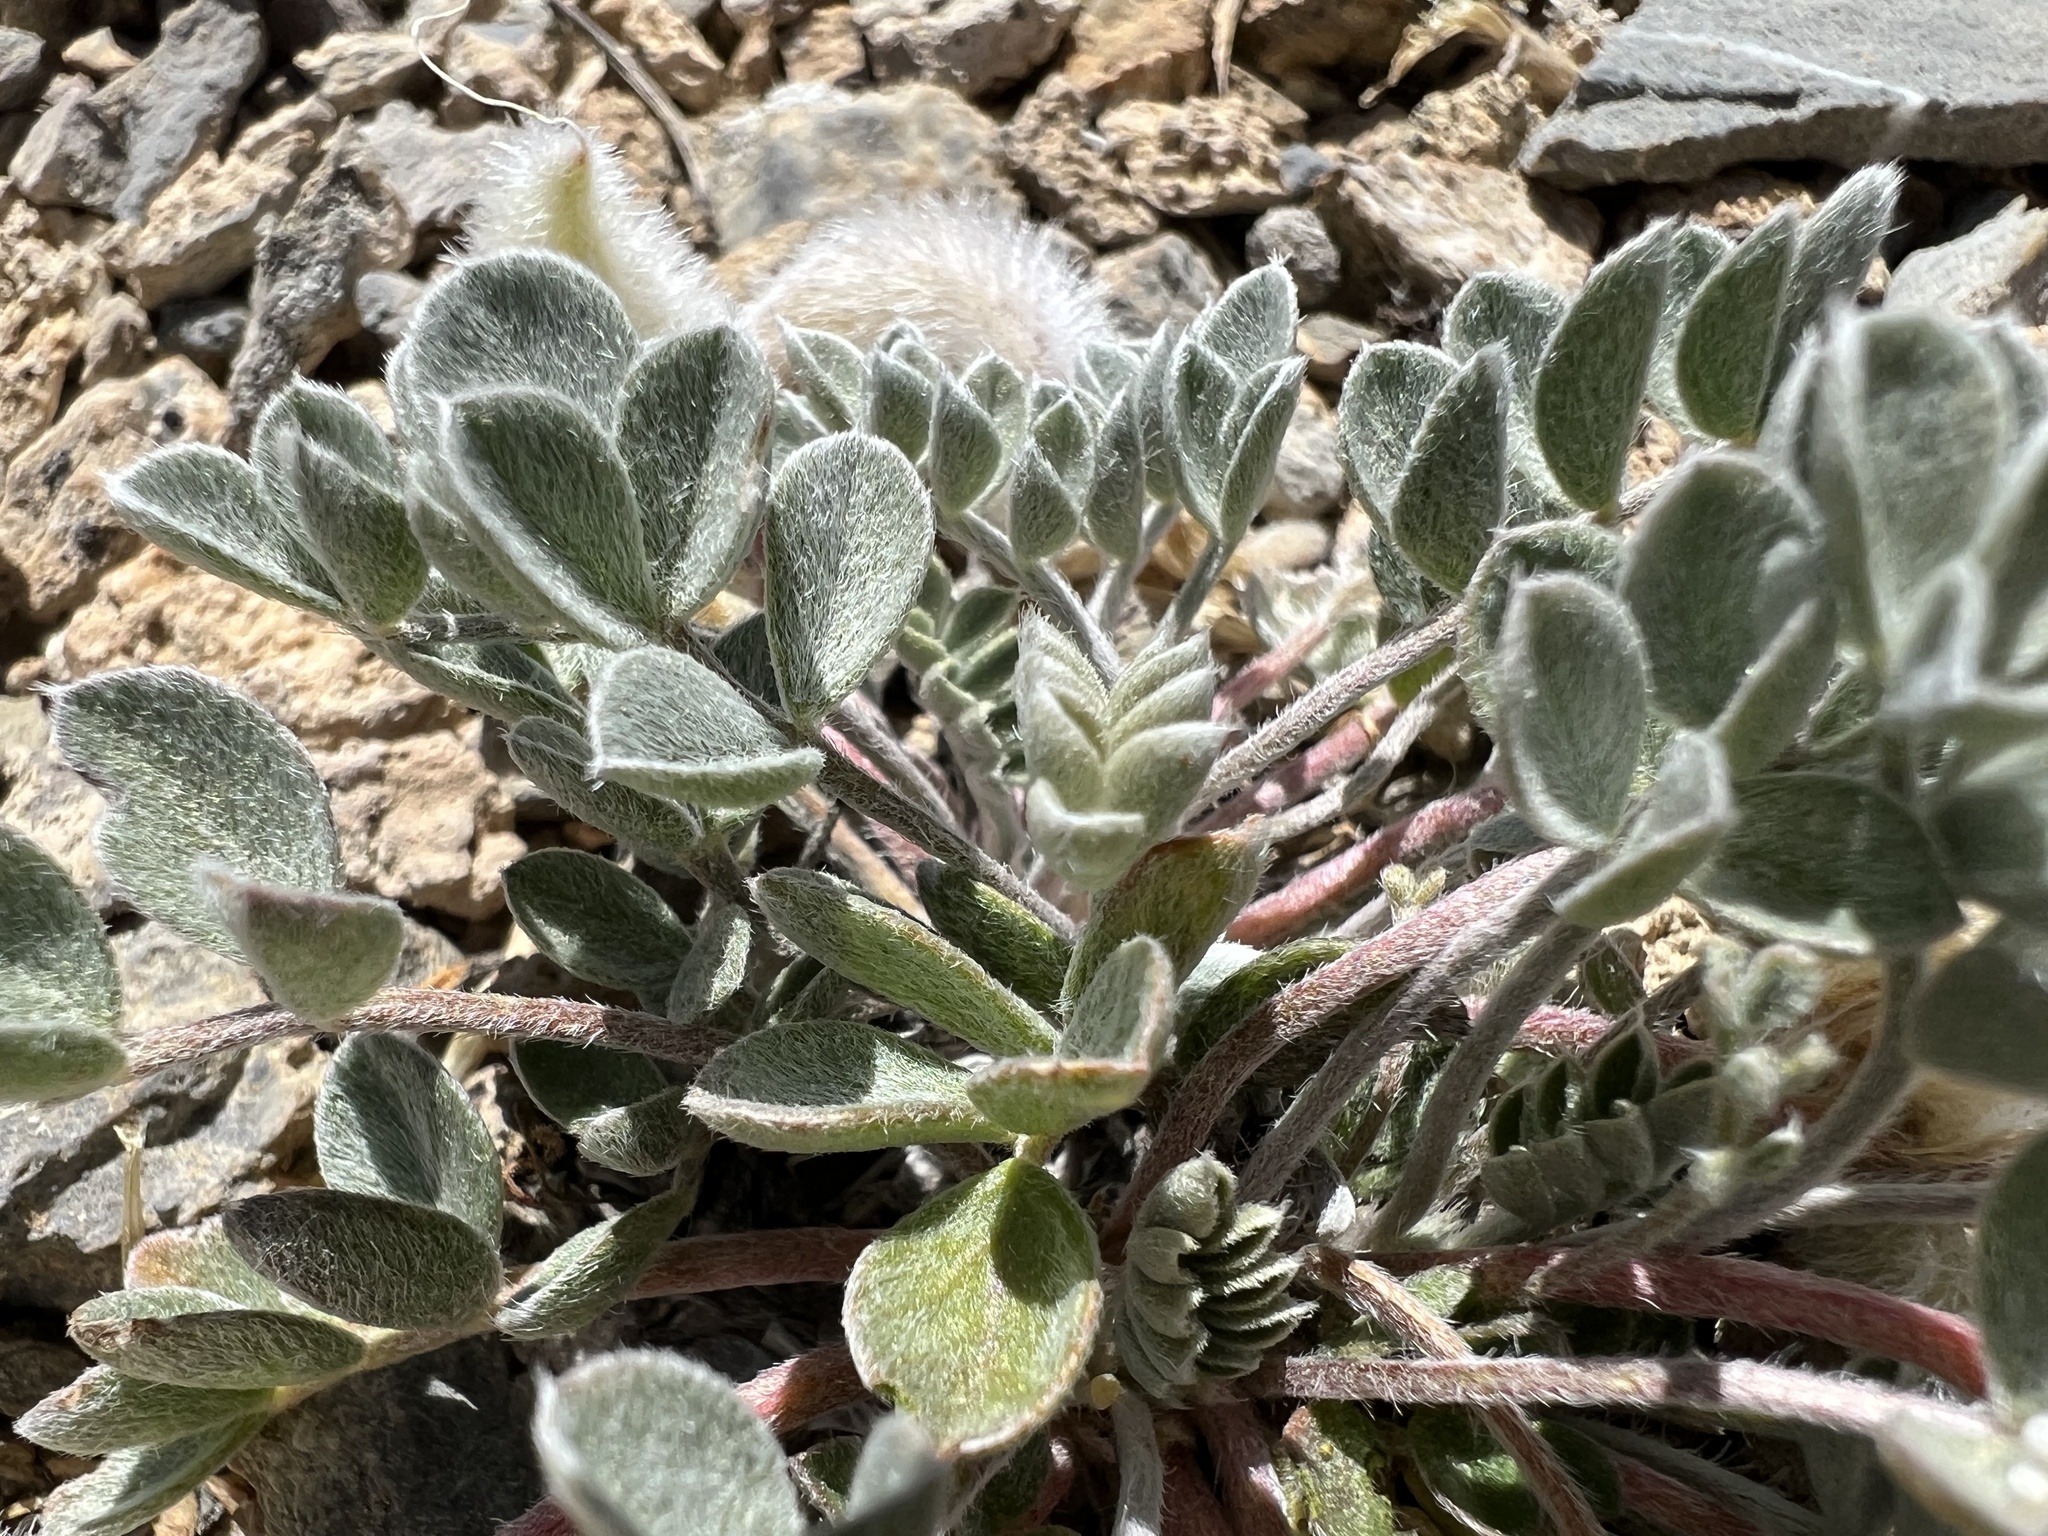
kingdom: Plantae
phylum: Tracheophyta
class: Magnoliopsida
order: Fabales
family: Fabaceae
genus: Astragalus
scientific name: Astragalus newberryi
